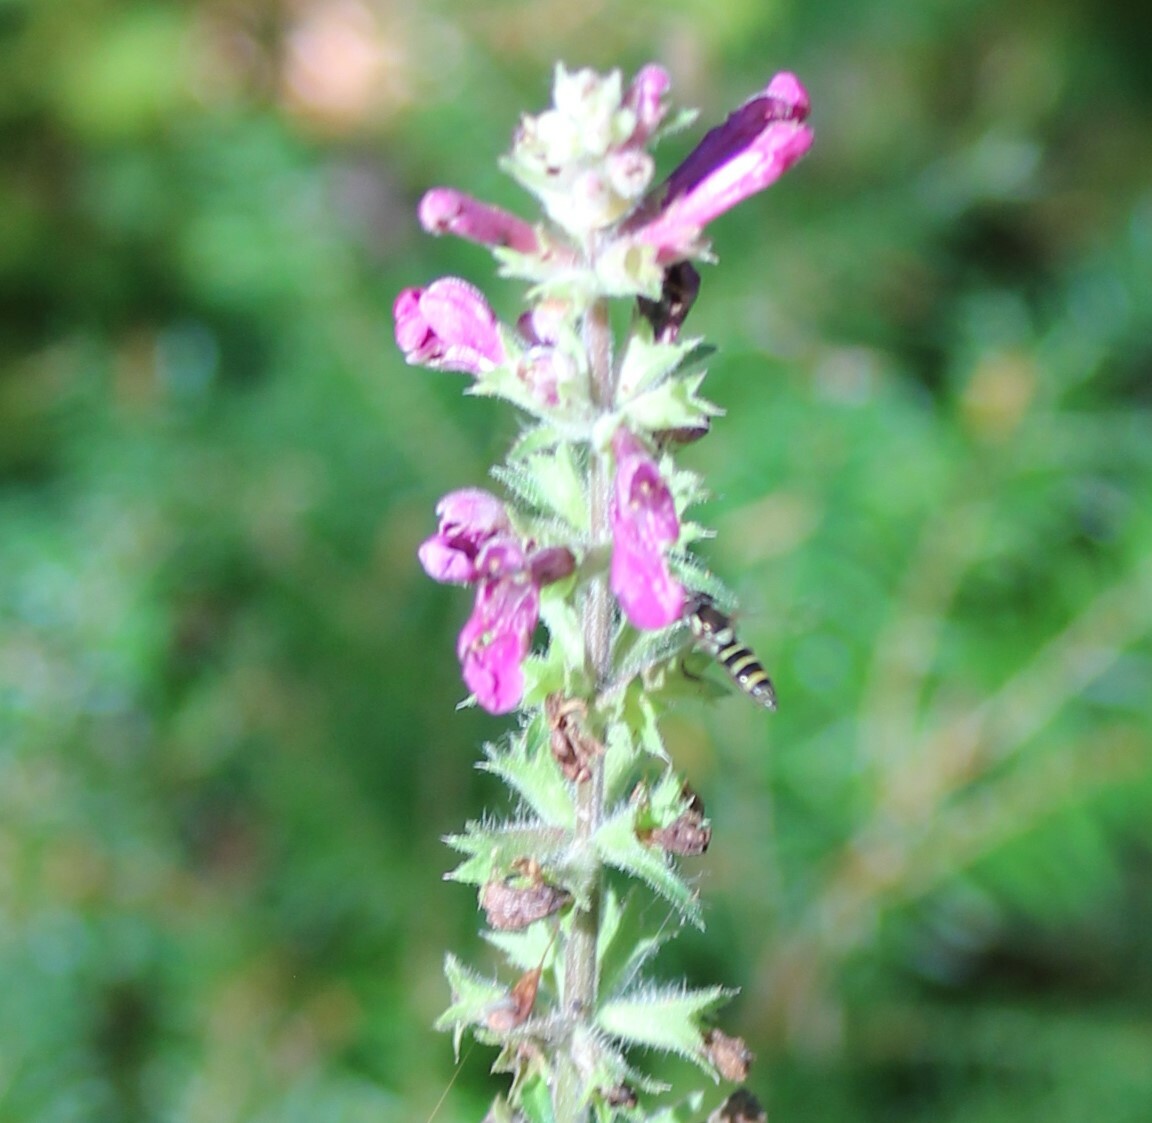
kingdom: Animalia
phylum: Arthropoda
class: Insecta
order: Diptera
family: Syrphidae
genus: Fazia
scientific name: Fazia micrura
